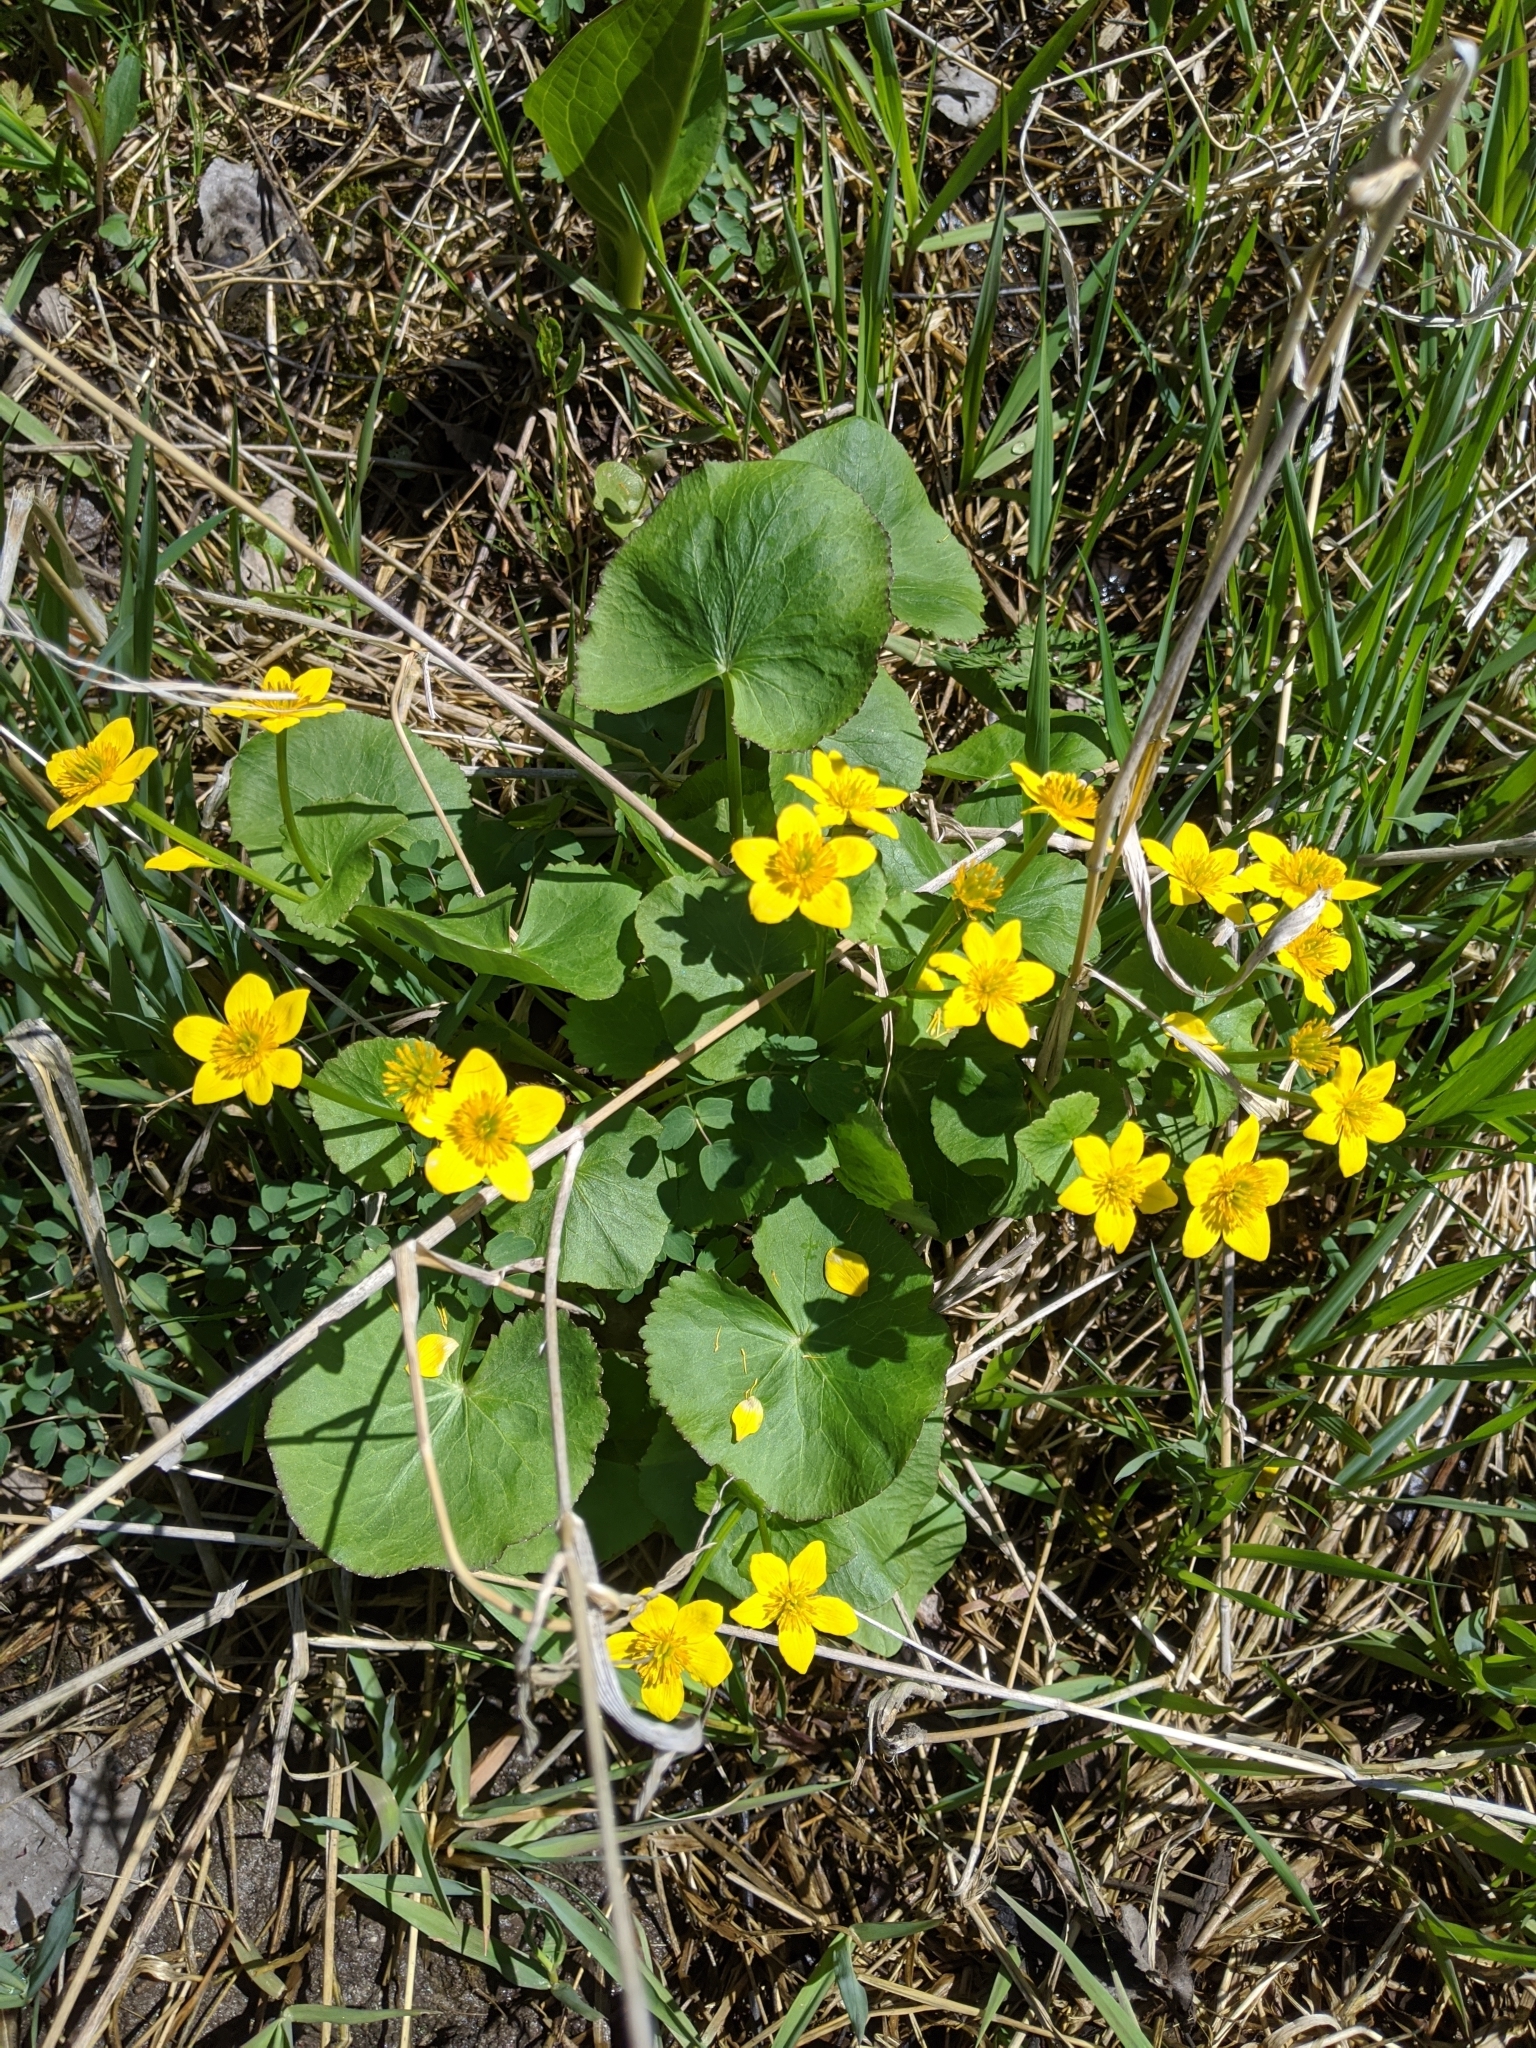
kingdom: Plantae
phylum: Tracheophyta
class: Magnoliopsida
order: Ranunculales
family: Ranunculaceae
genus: Caltha
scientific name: Caltha palustris
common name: Marsh marigold
